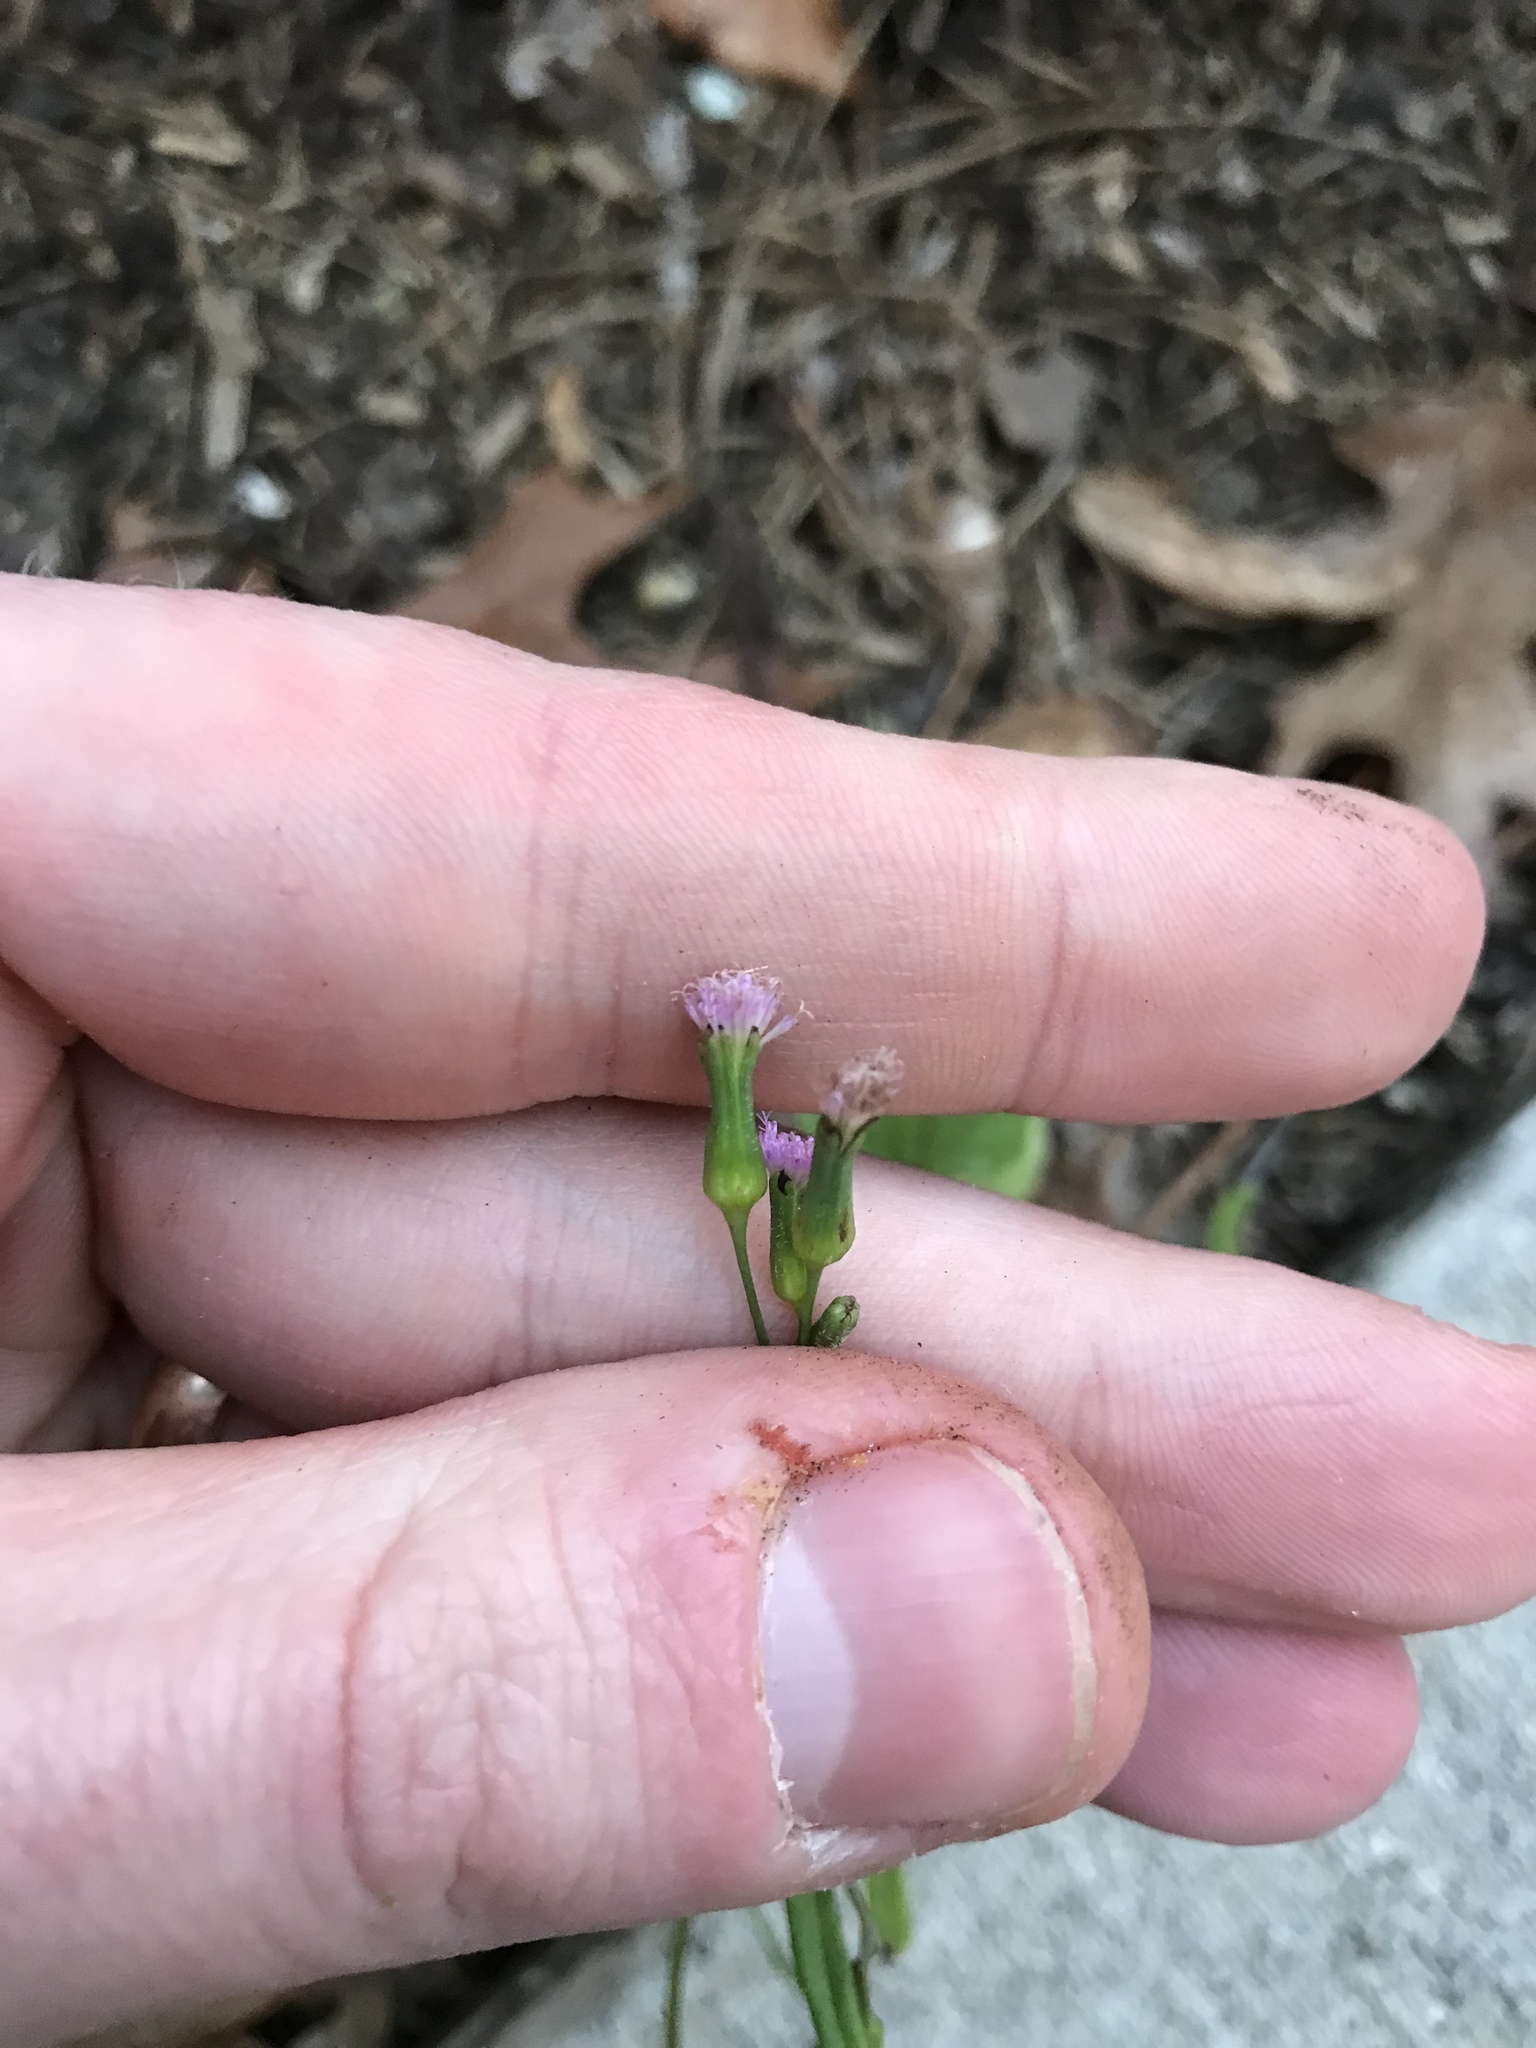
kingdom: Plantae
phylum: Tracheophyta
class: Magnoliopsida
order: Asterales
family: Asteraceae
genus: Emilia
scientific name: Emilia sonchifolia
